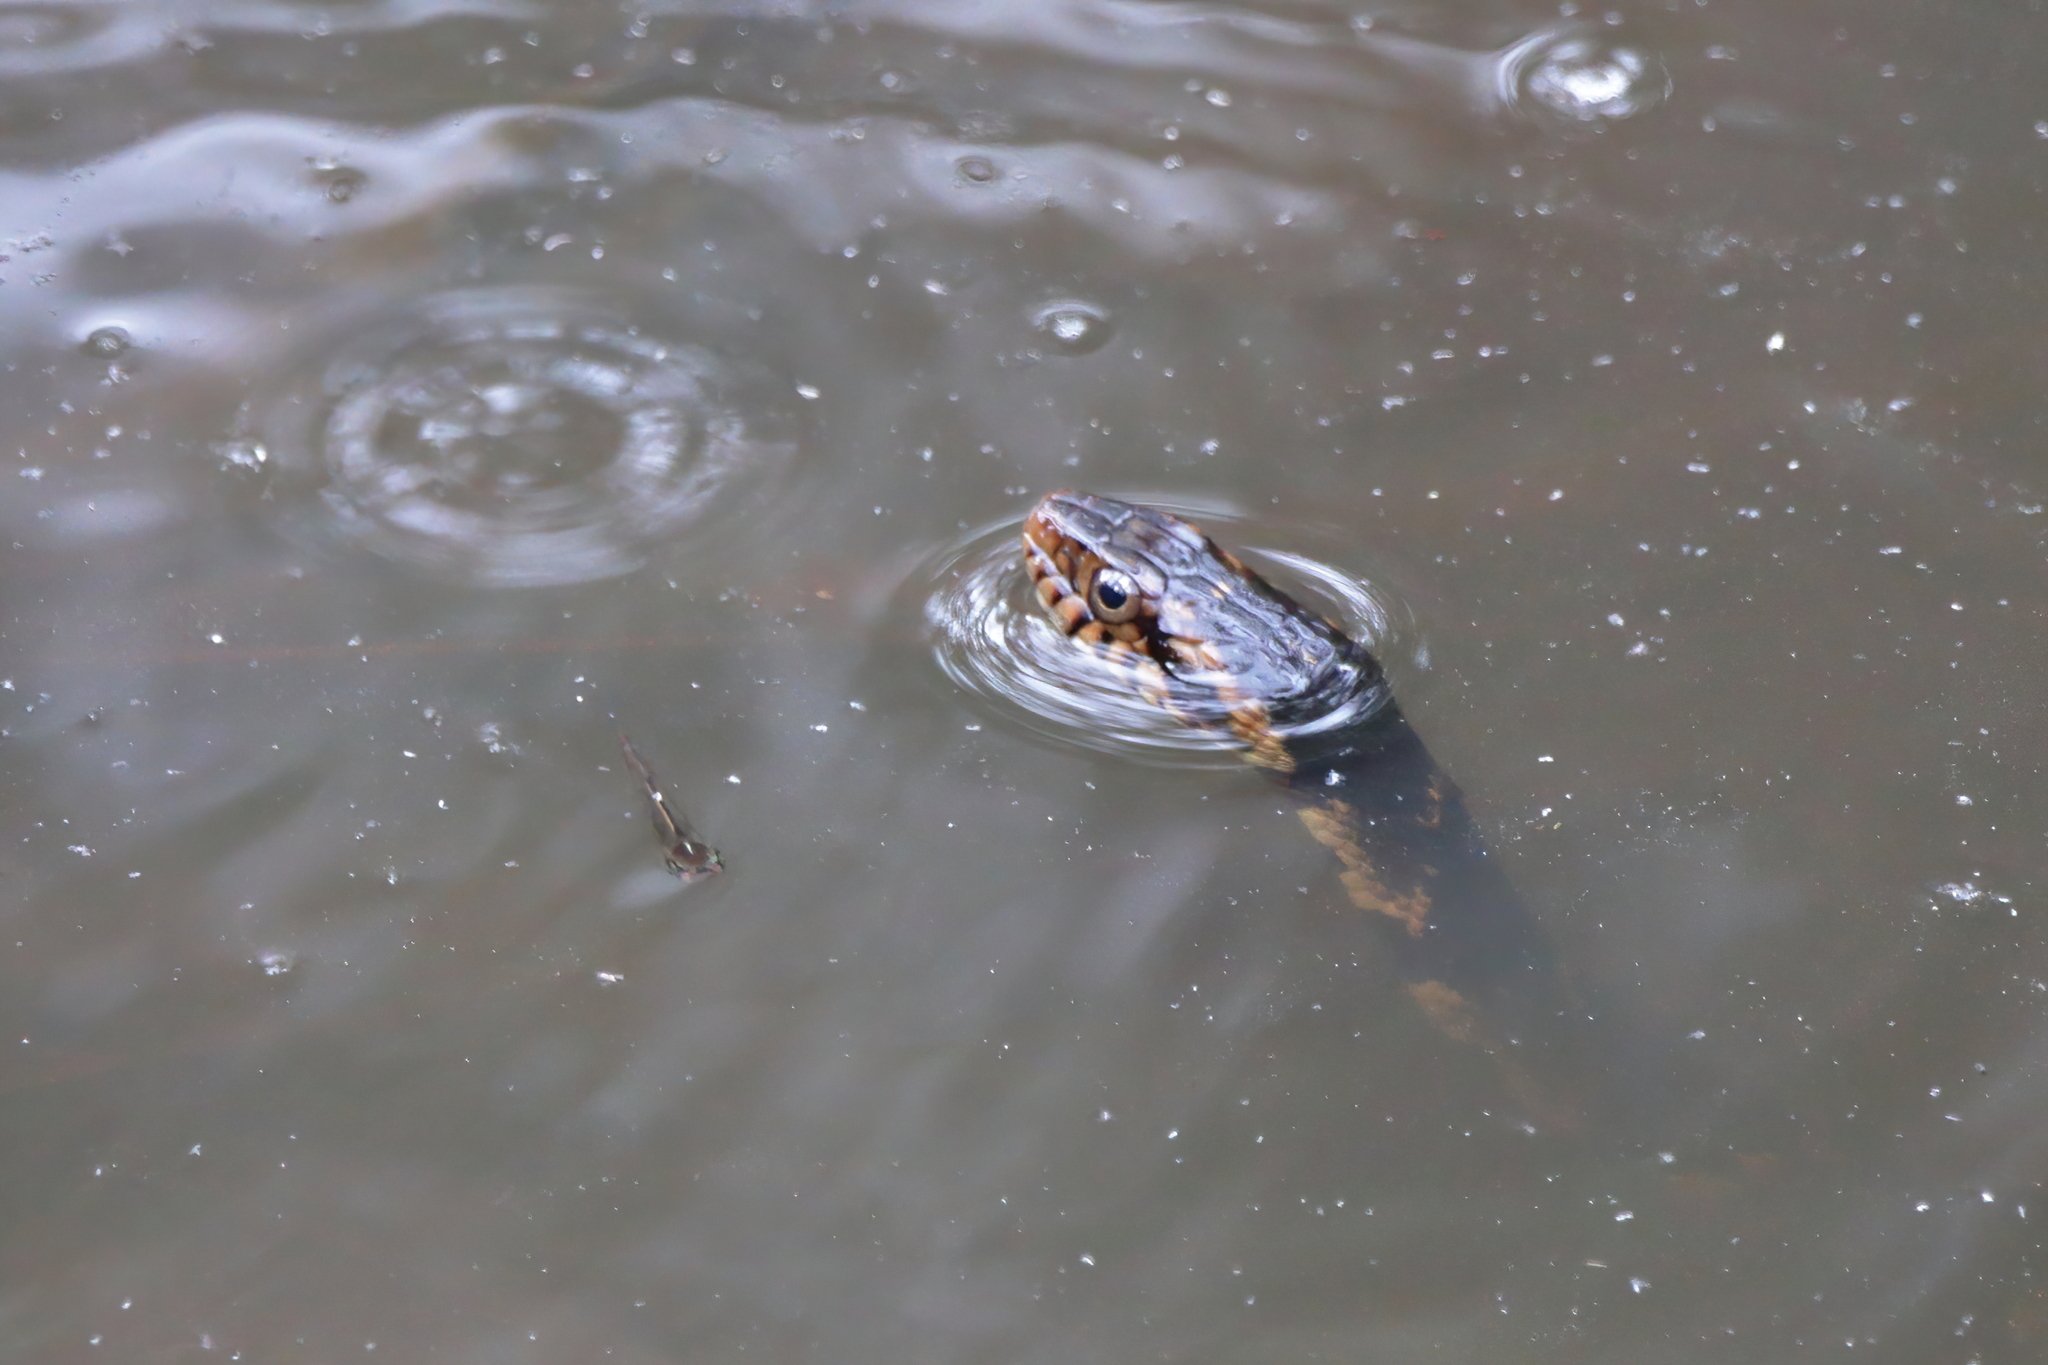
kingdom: Animalia
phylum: Chordata
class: Squamata
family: Colubridae
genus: Nerodia
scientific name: Nerodia fasciata
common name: Southern water snake
